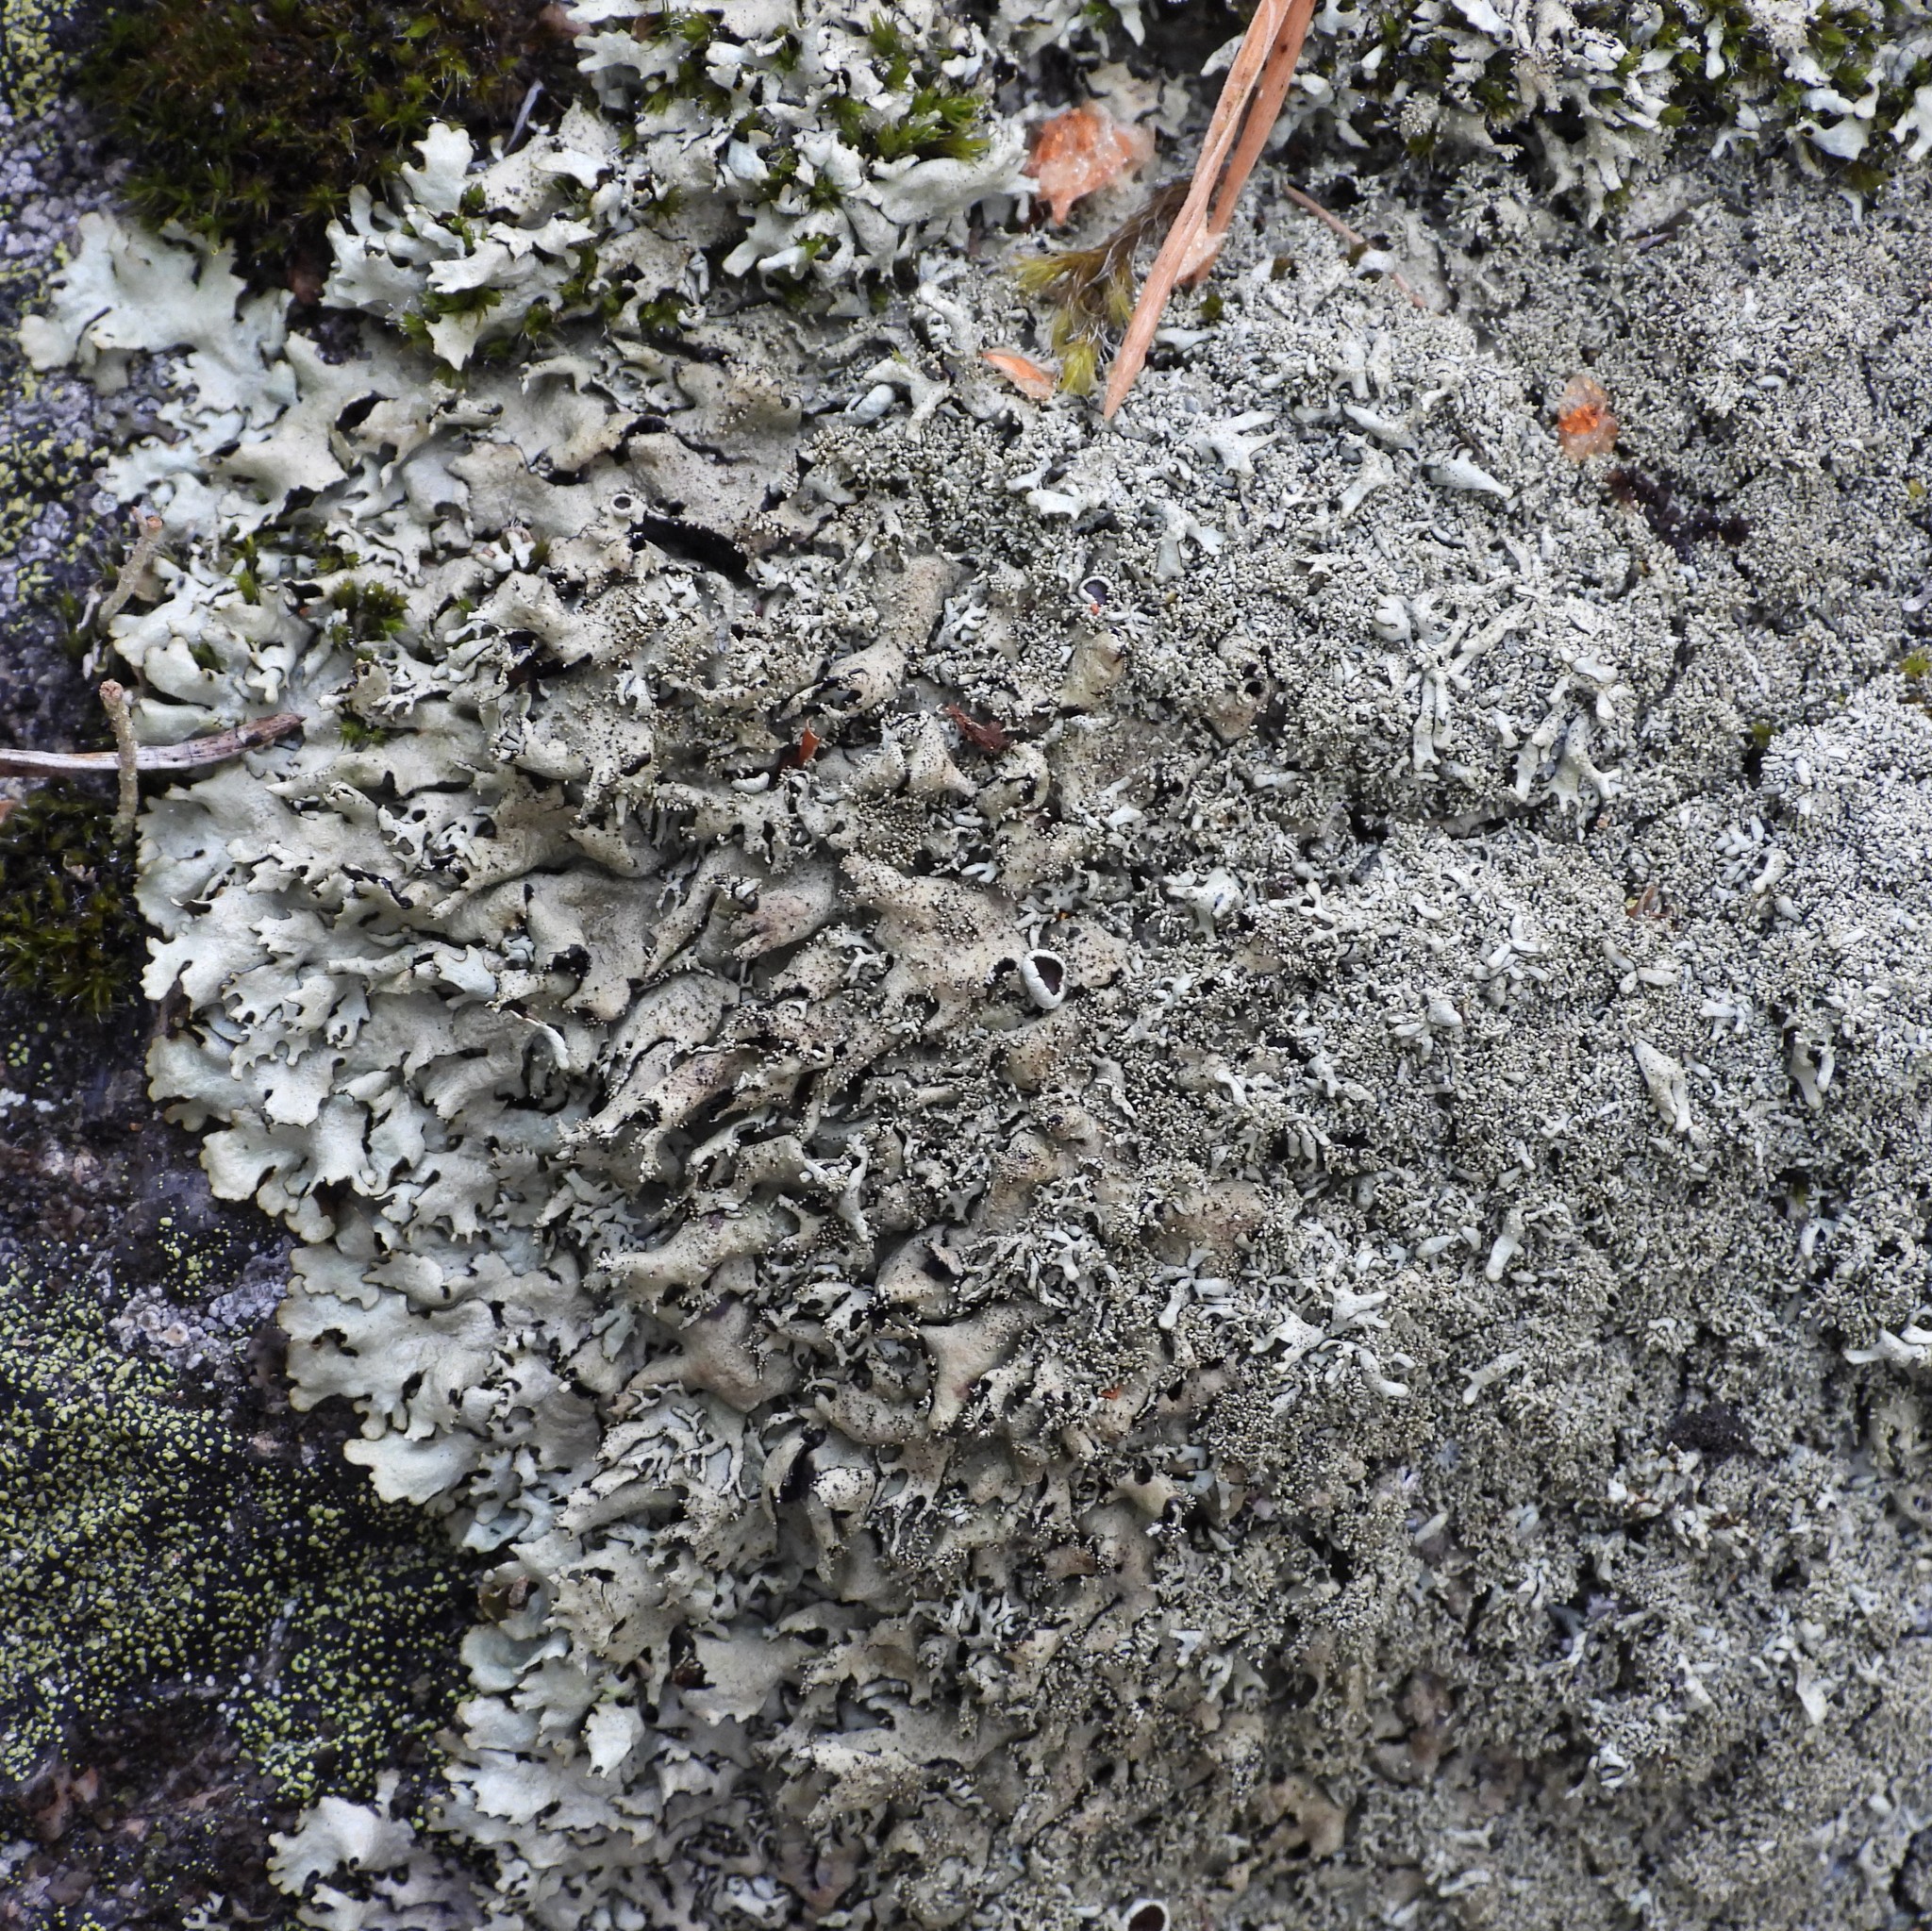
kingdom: Fungi
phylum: Ascomycota
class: Lecanoromycetes
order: Lecanorales
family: Parmeliaceae
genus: Xanthoparmelia
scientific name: Xanthoparmelia conspersa
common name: Peppered rock shield
